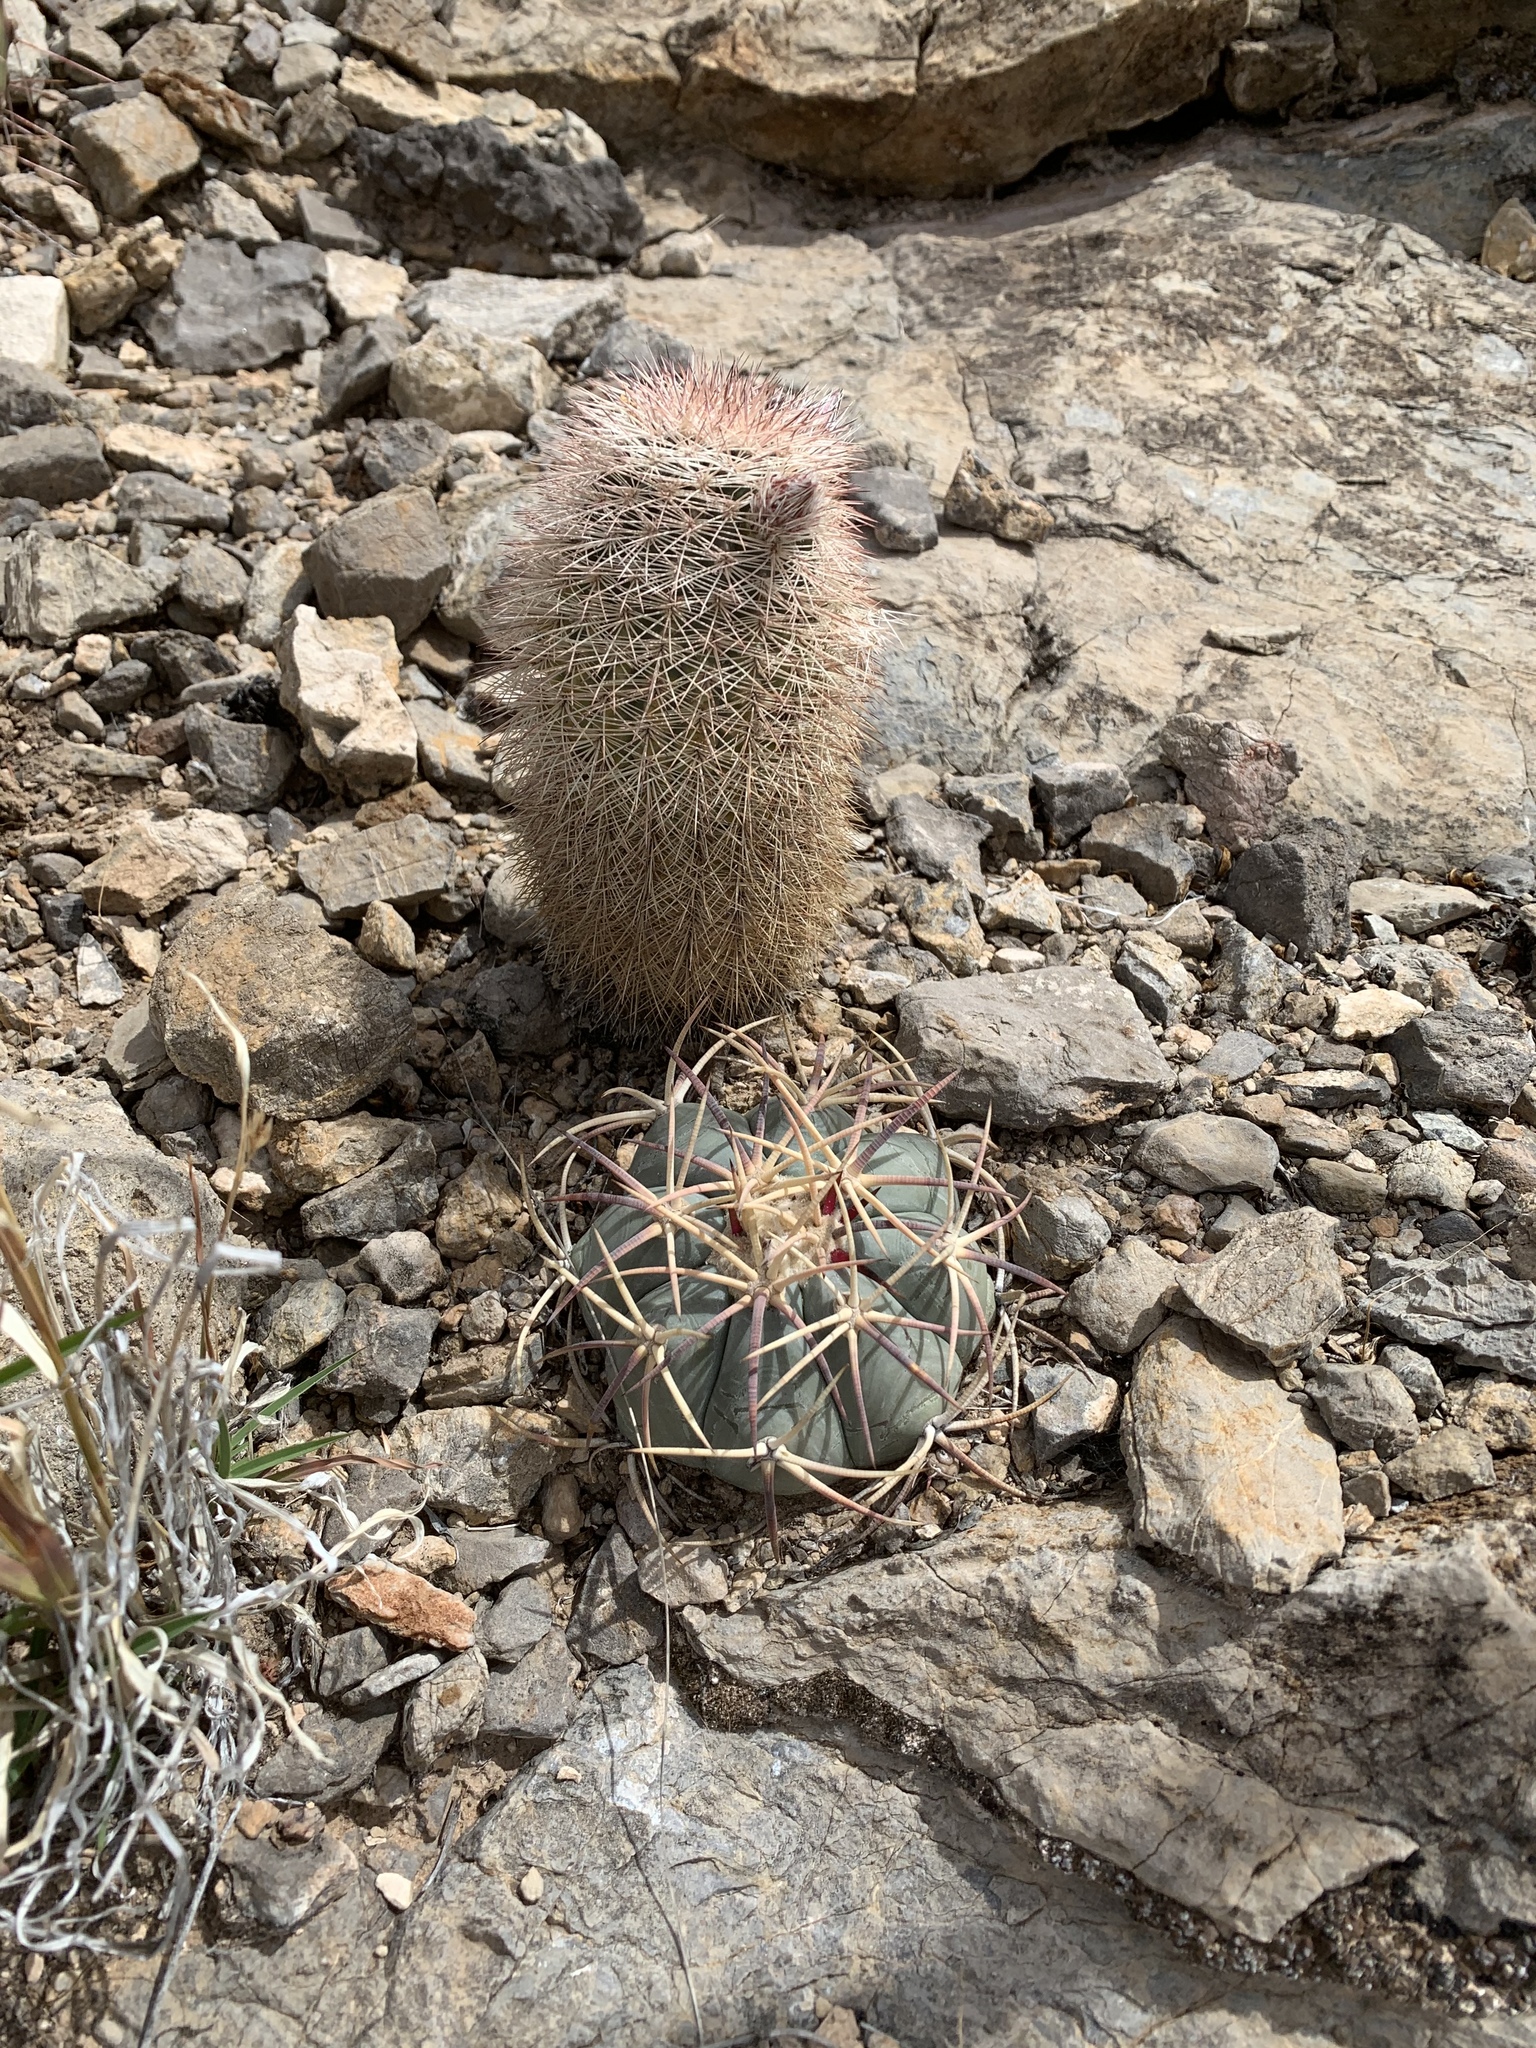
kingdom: Plantae
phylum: Tracheophyta
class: Magnoliopsida
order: Caryophyllales
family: Cactaceae
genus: Echinocactus
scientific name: Echinocactus horizonthalonius
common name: Devilshead
